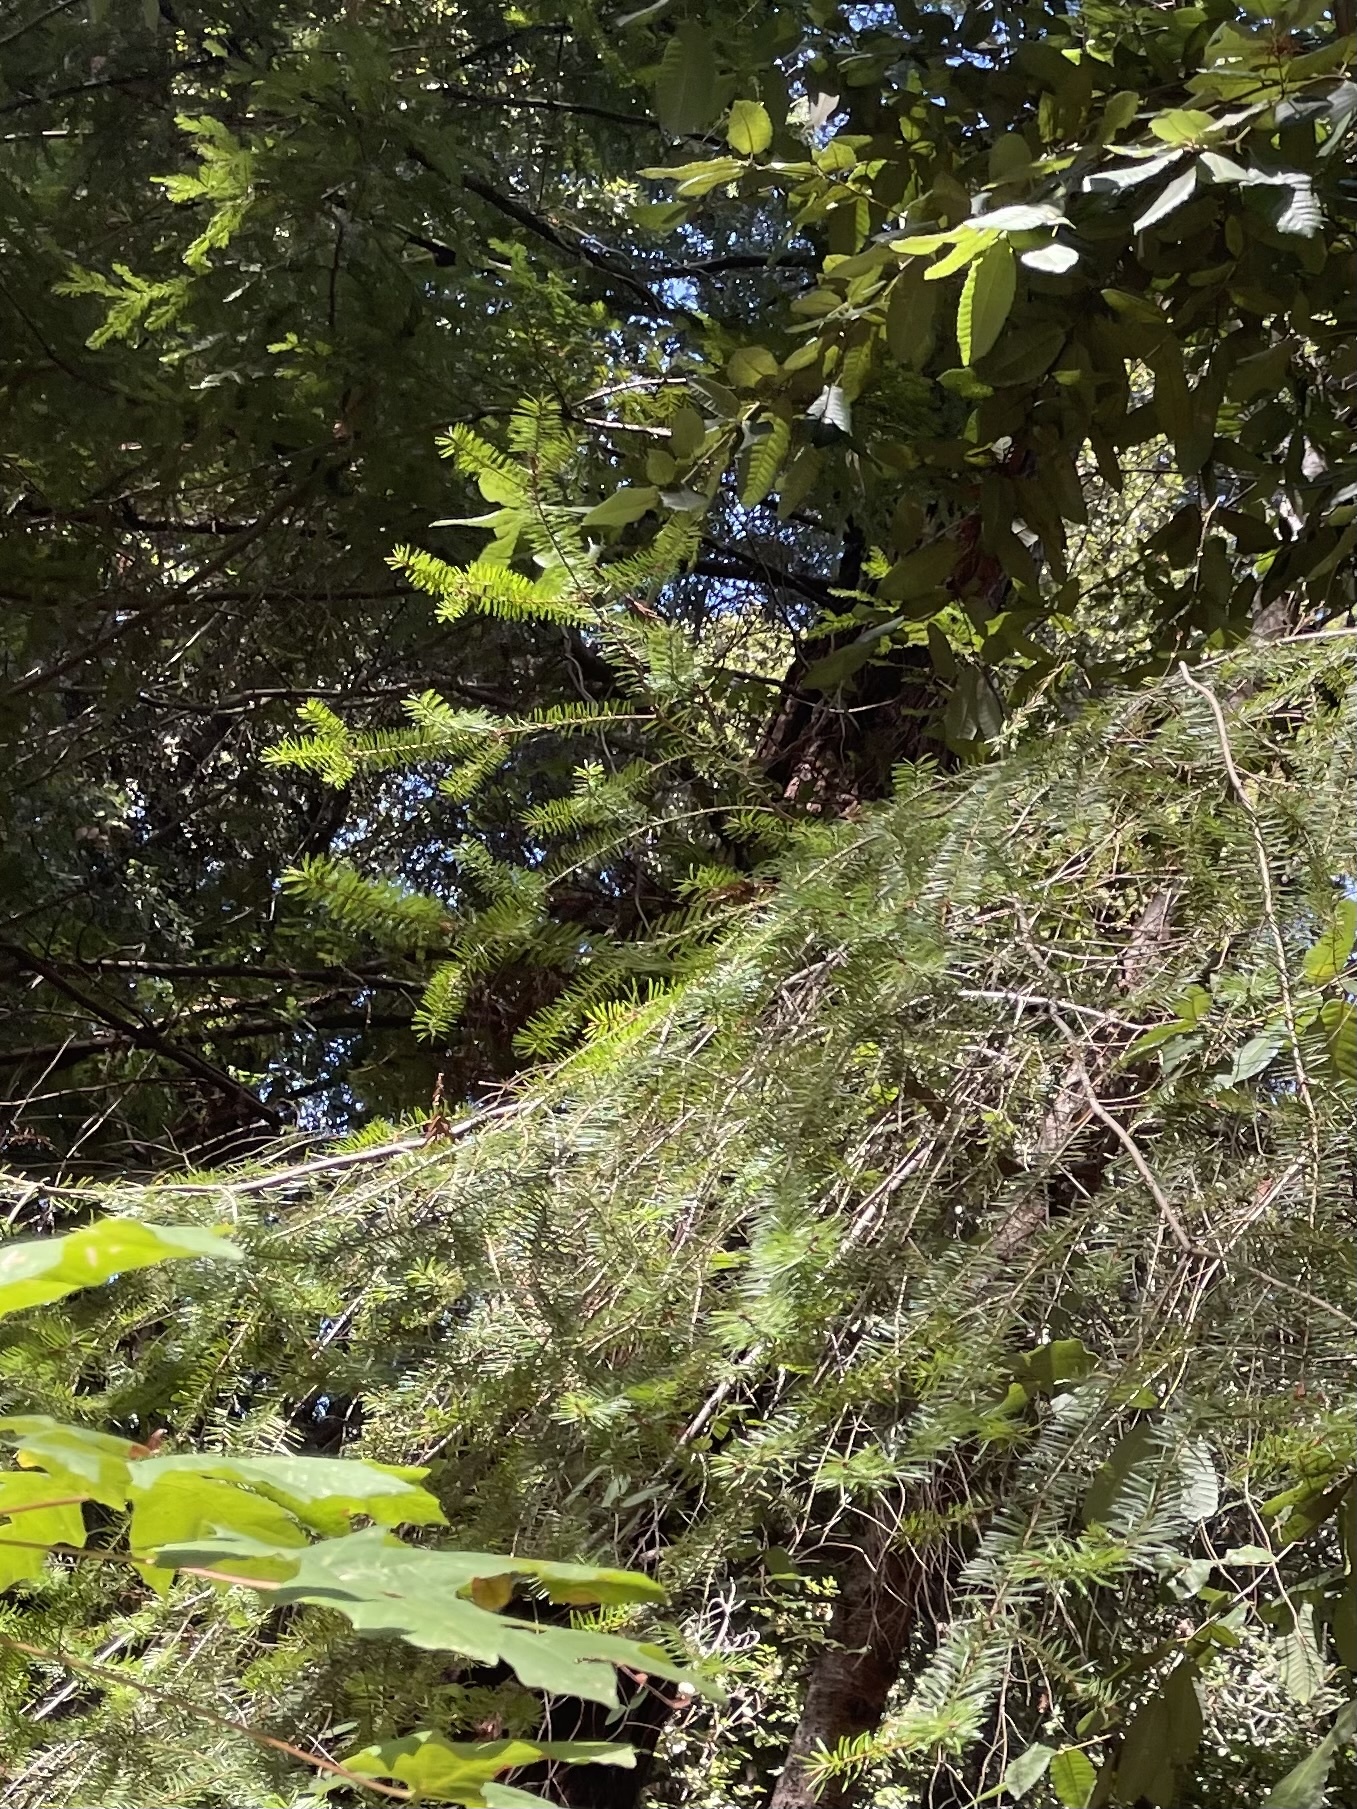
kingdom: Plantae
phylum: Tracheophyta
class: Pinopsida
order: Pinales
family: Pinaceae
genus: Pseudotsuga
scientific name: Pseudotsuga menziesii
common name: Douglas fir
